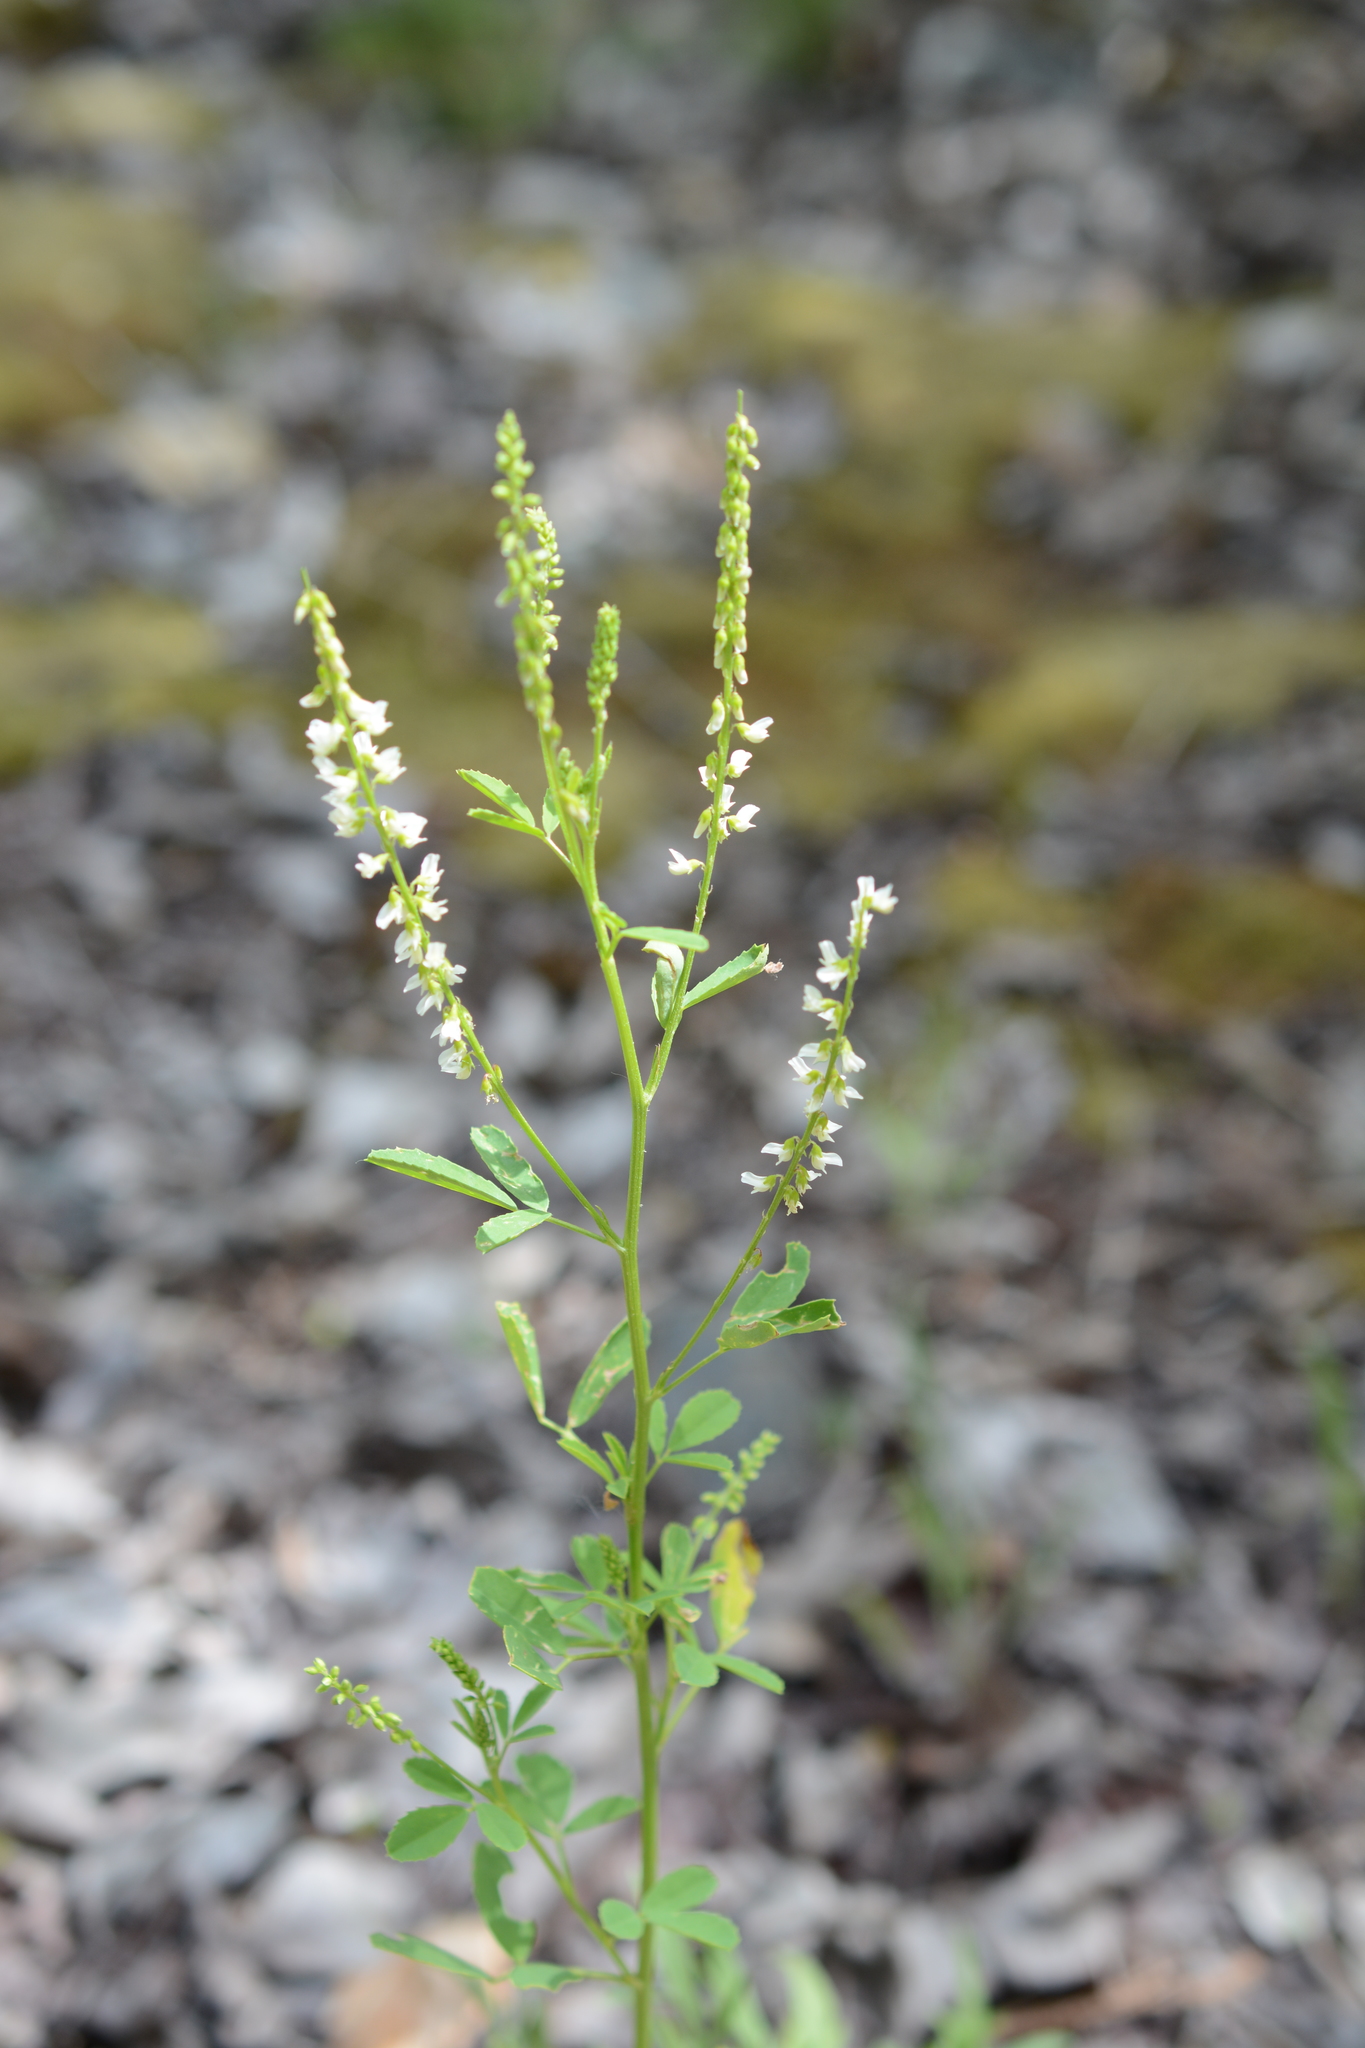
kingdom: Plantae
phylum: Tracheophyta
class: Magnoliopsida
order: Fabales
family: Fabaceae
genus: Melilotus
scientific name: Melilotus albus
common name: White melilot
